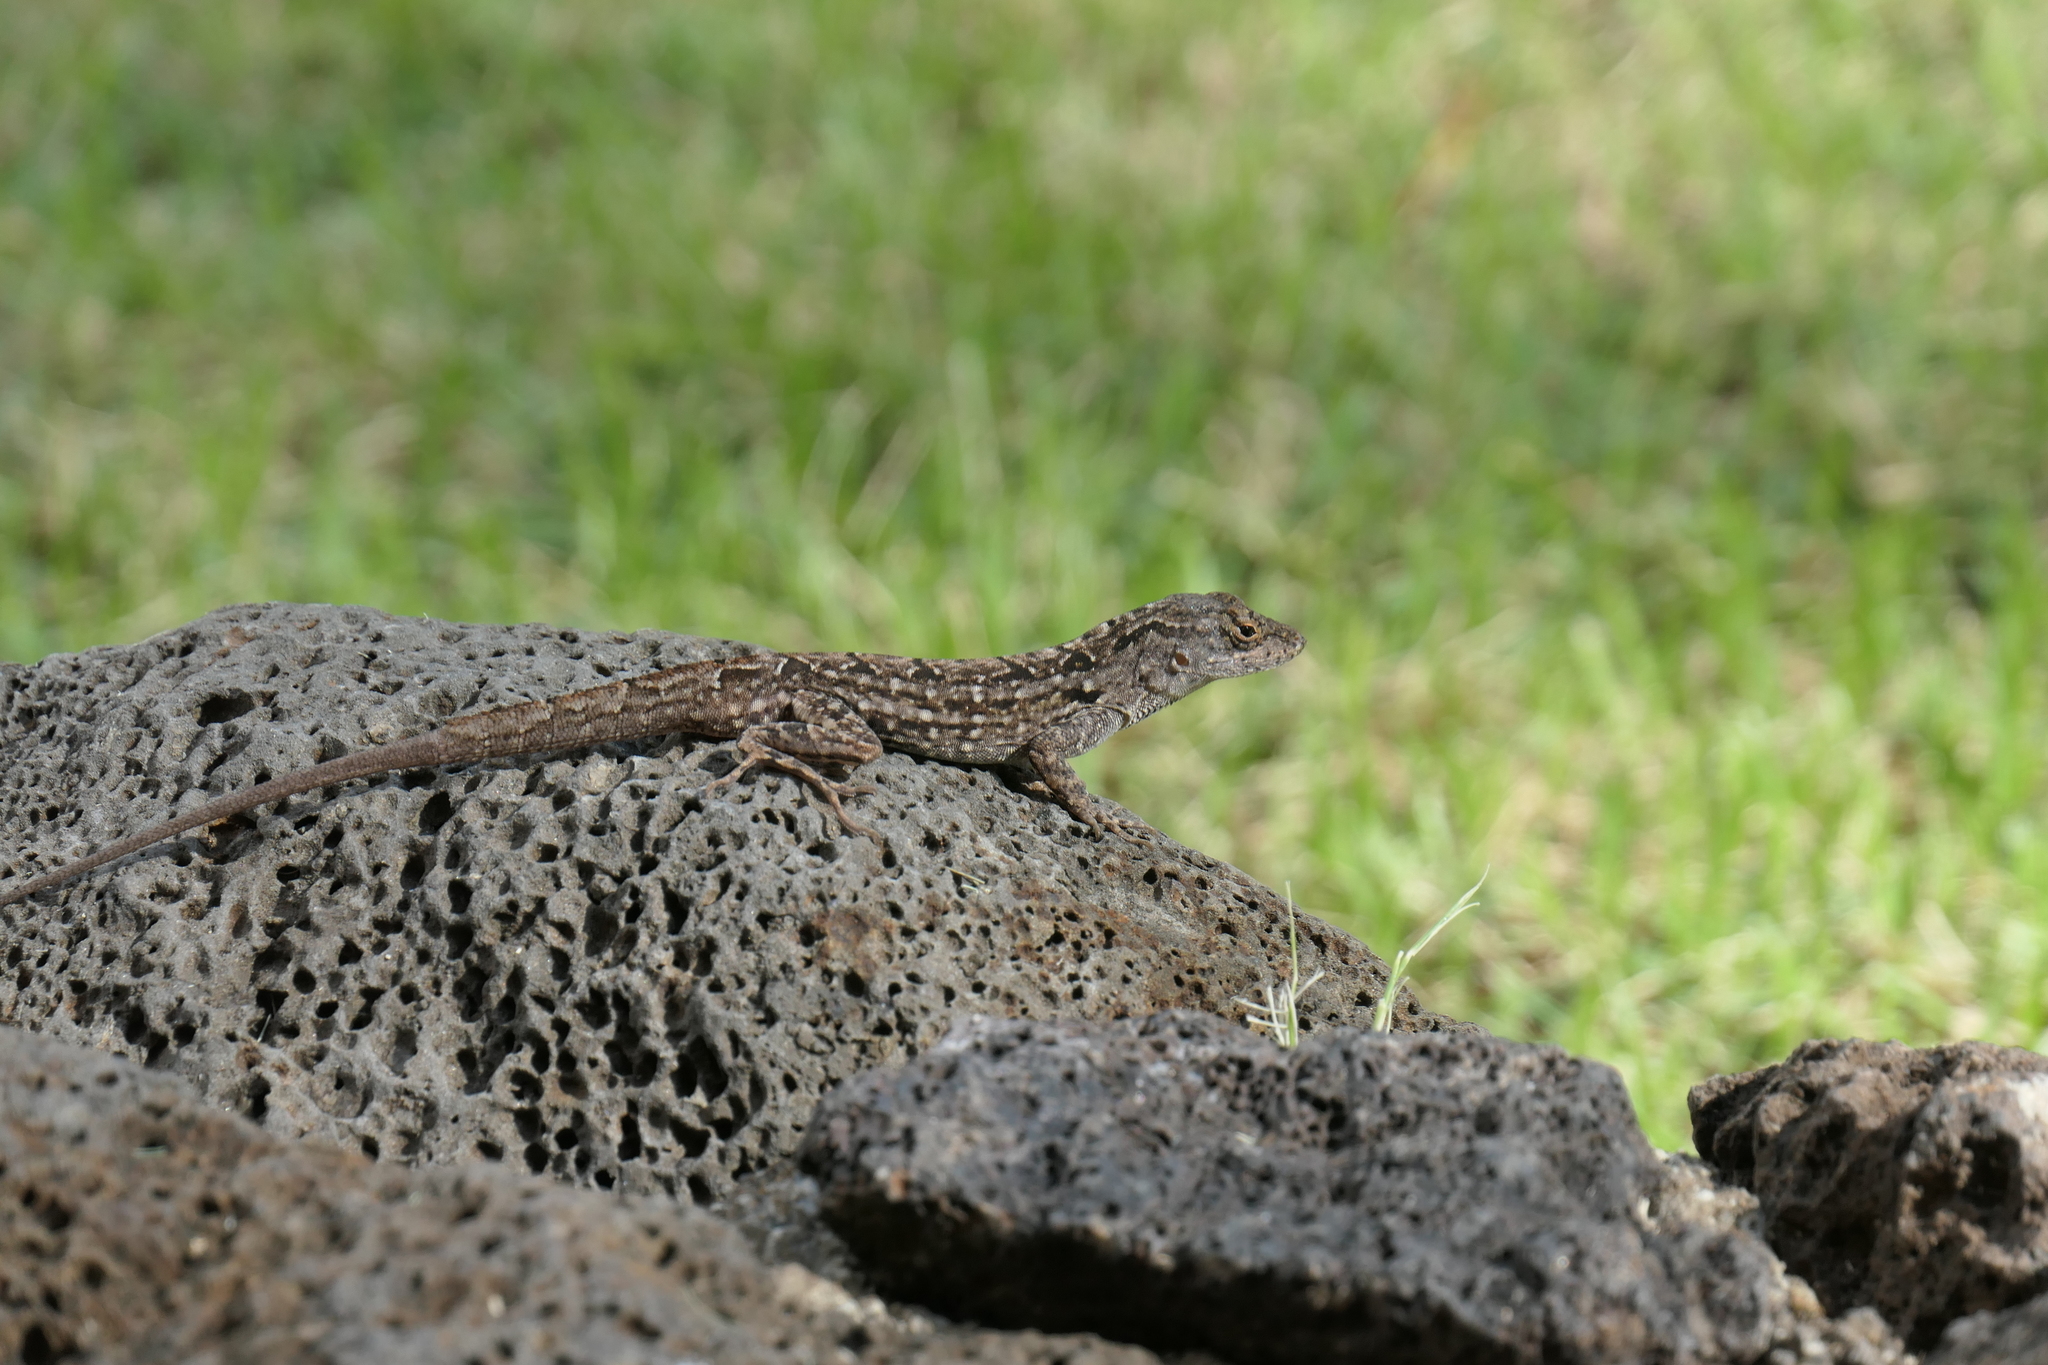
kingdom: Animalia
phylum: Chordata
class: Squamata
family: Dactyloidae
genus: Anolis
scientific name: Anolis sagrei
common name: Brown anole
